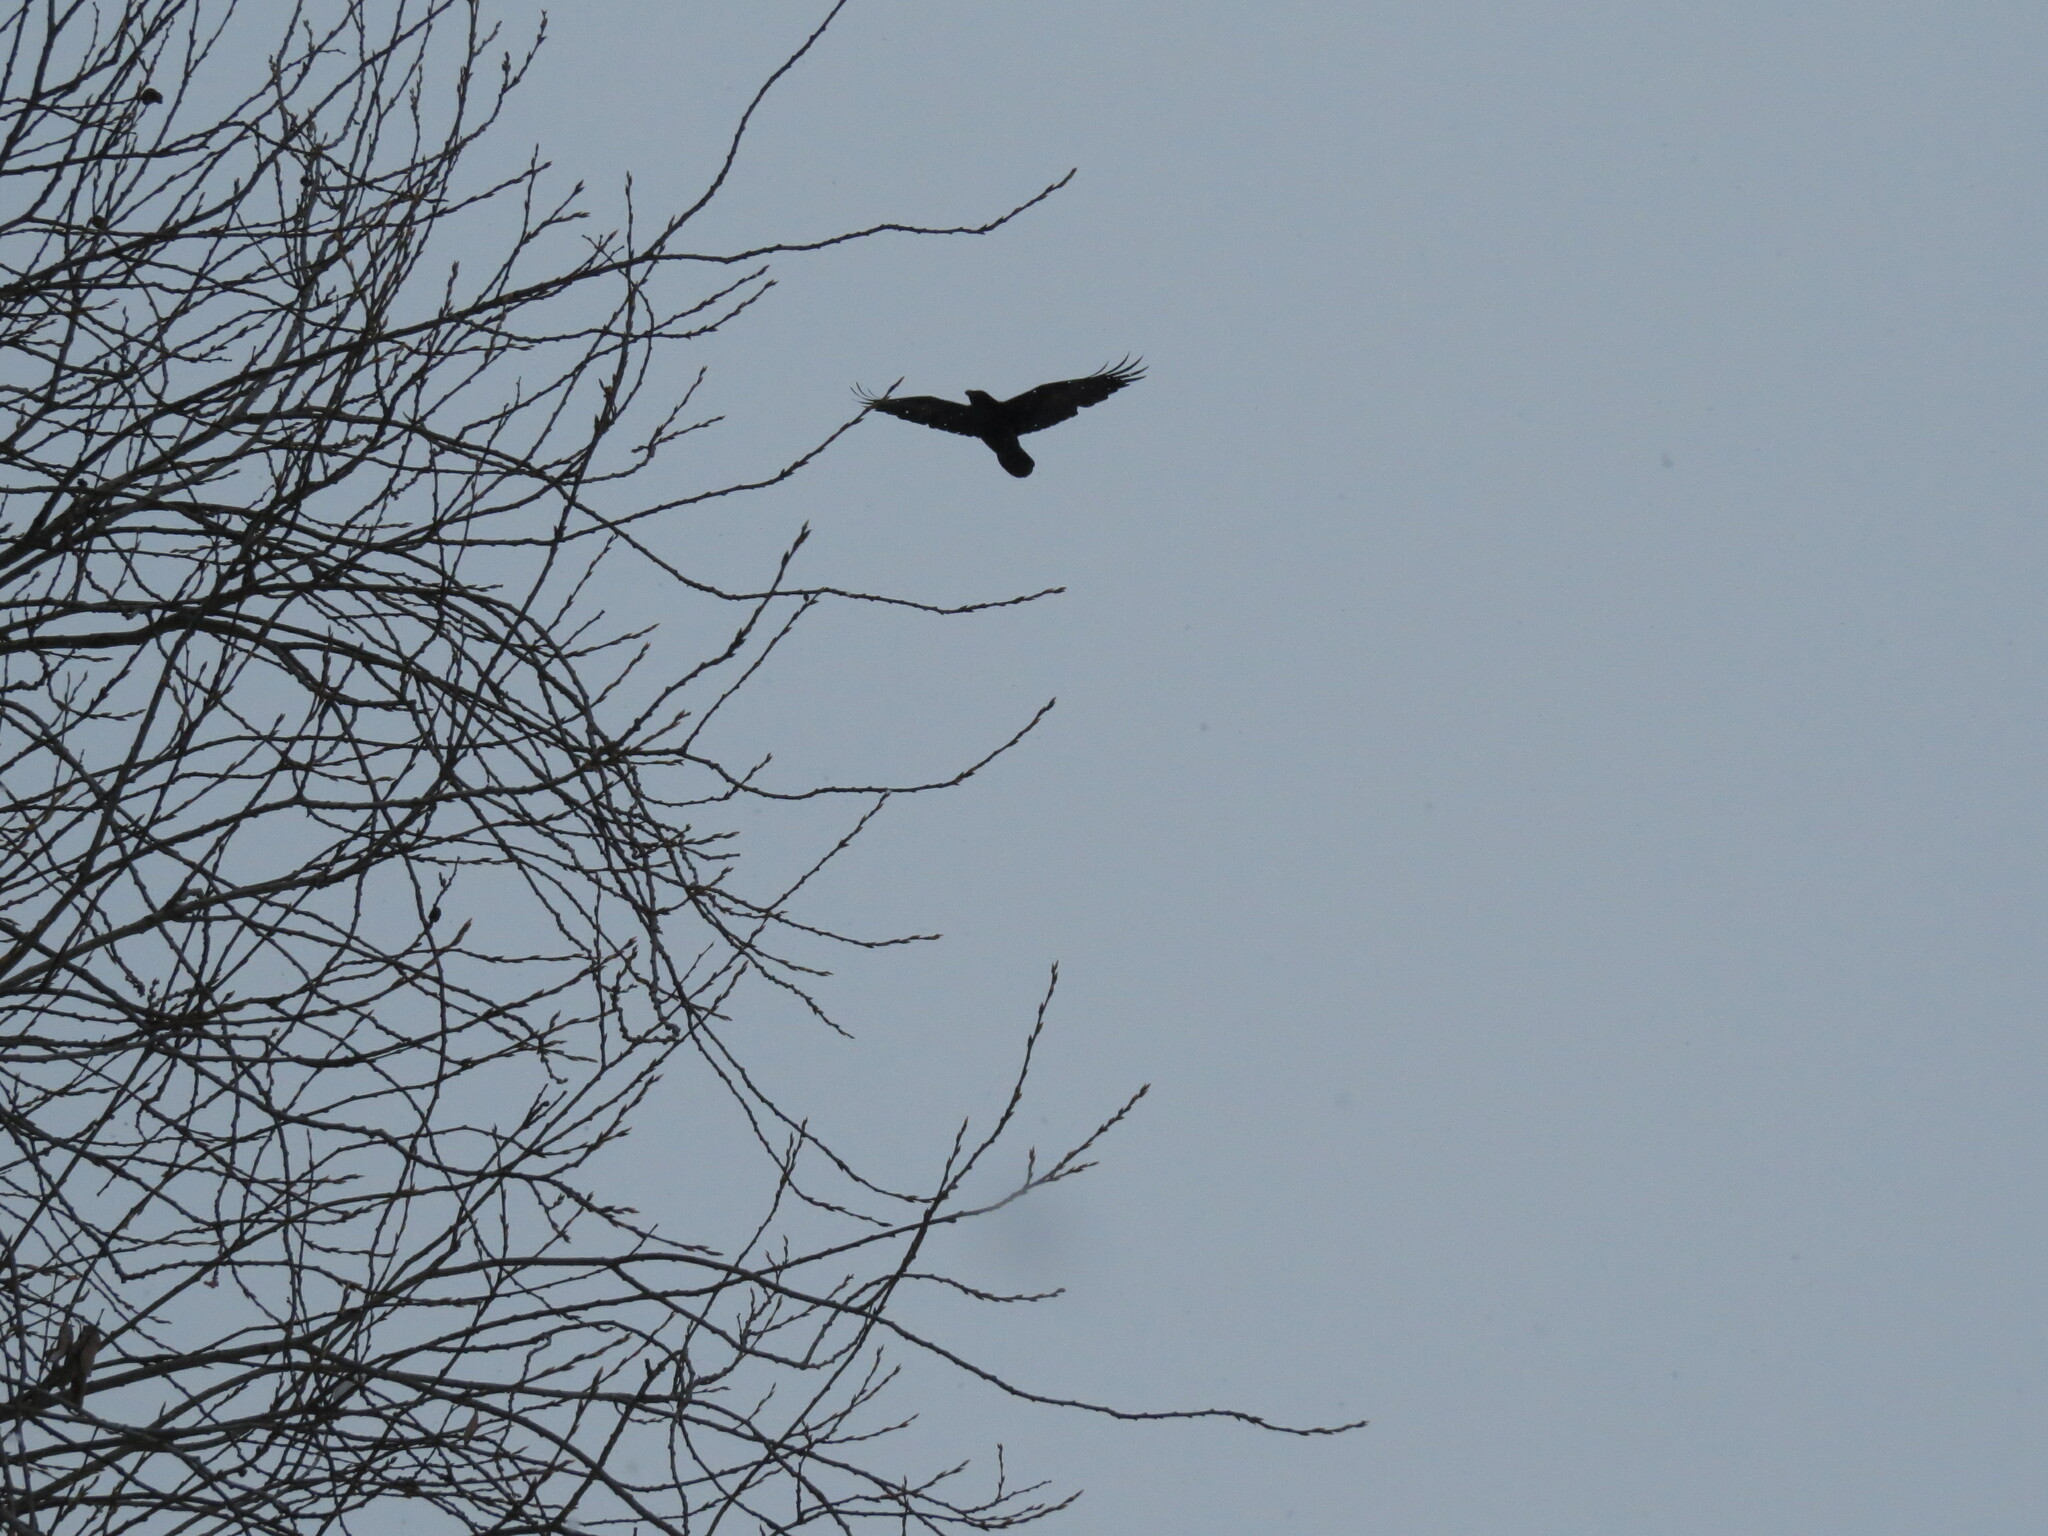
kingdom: Animalia
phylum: Chordata
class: Aves
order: Passeriformes
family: Corvidae
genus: Corvus
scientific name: Corvus corax
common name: Common raven
